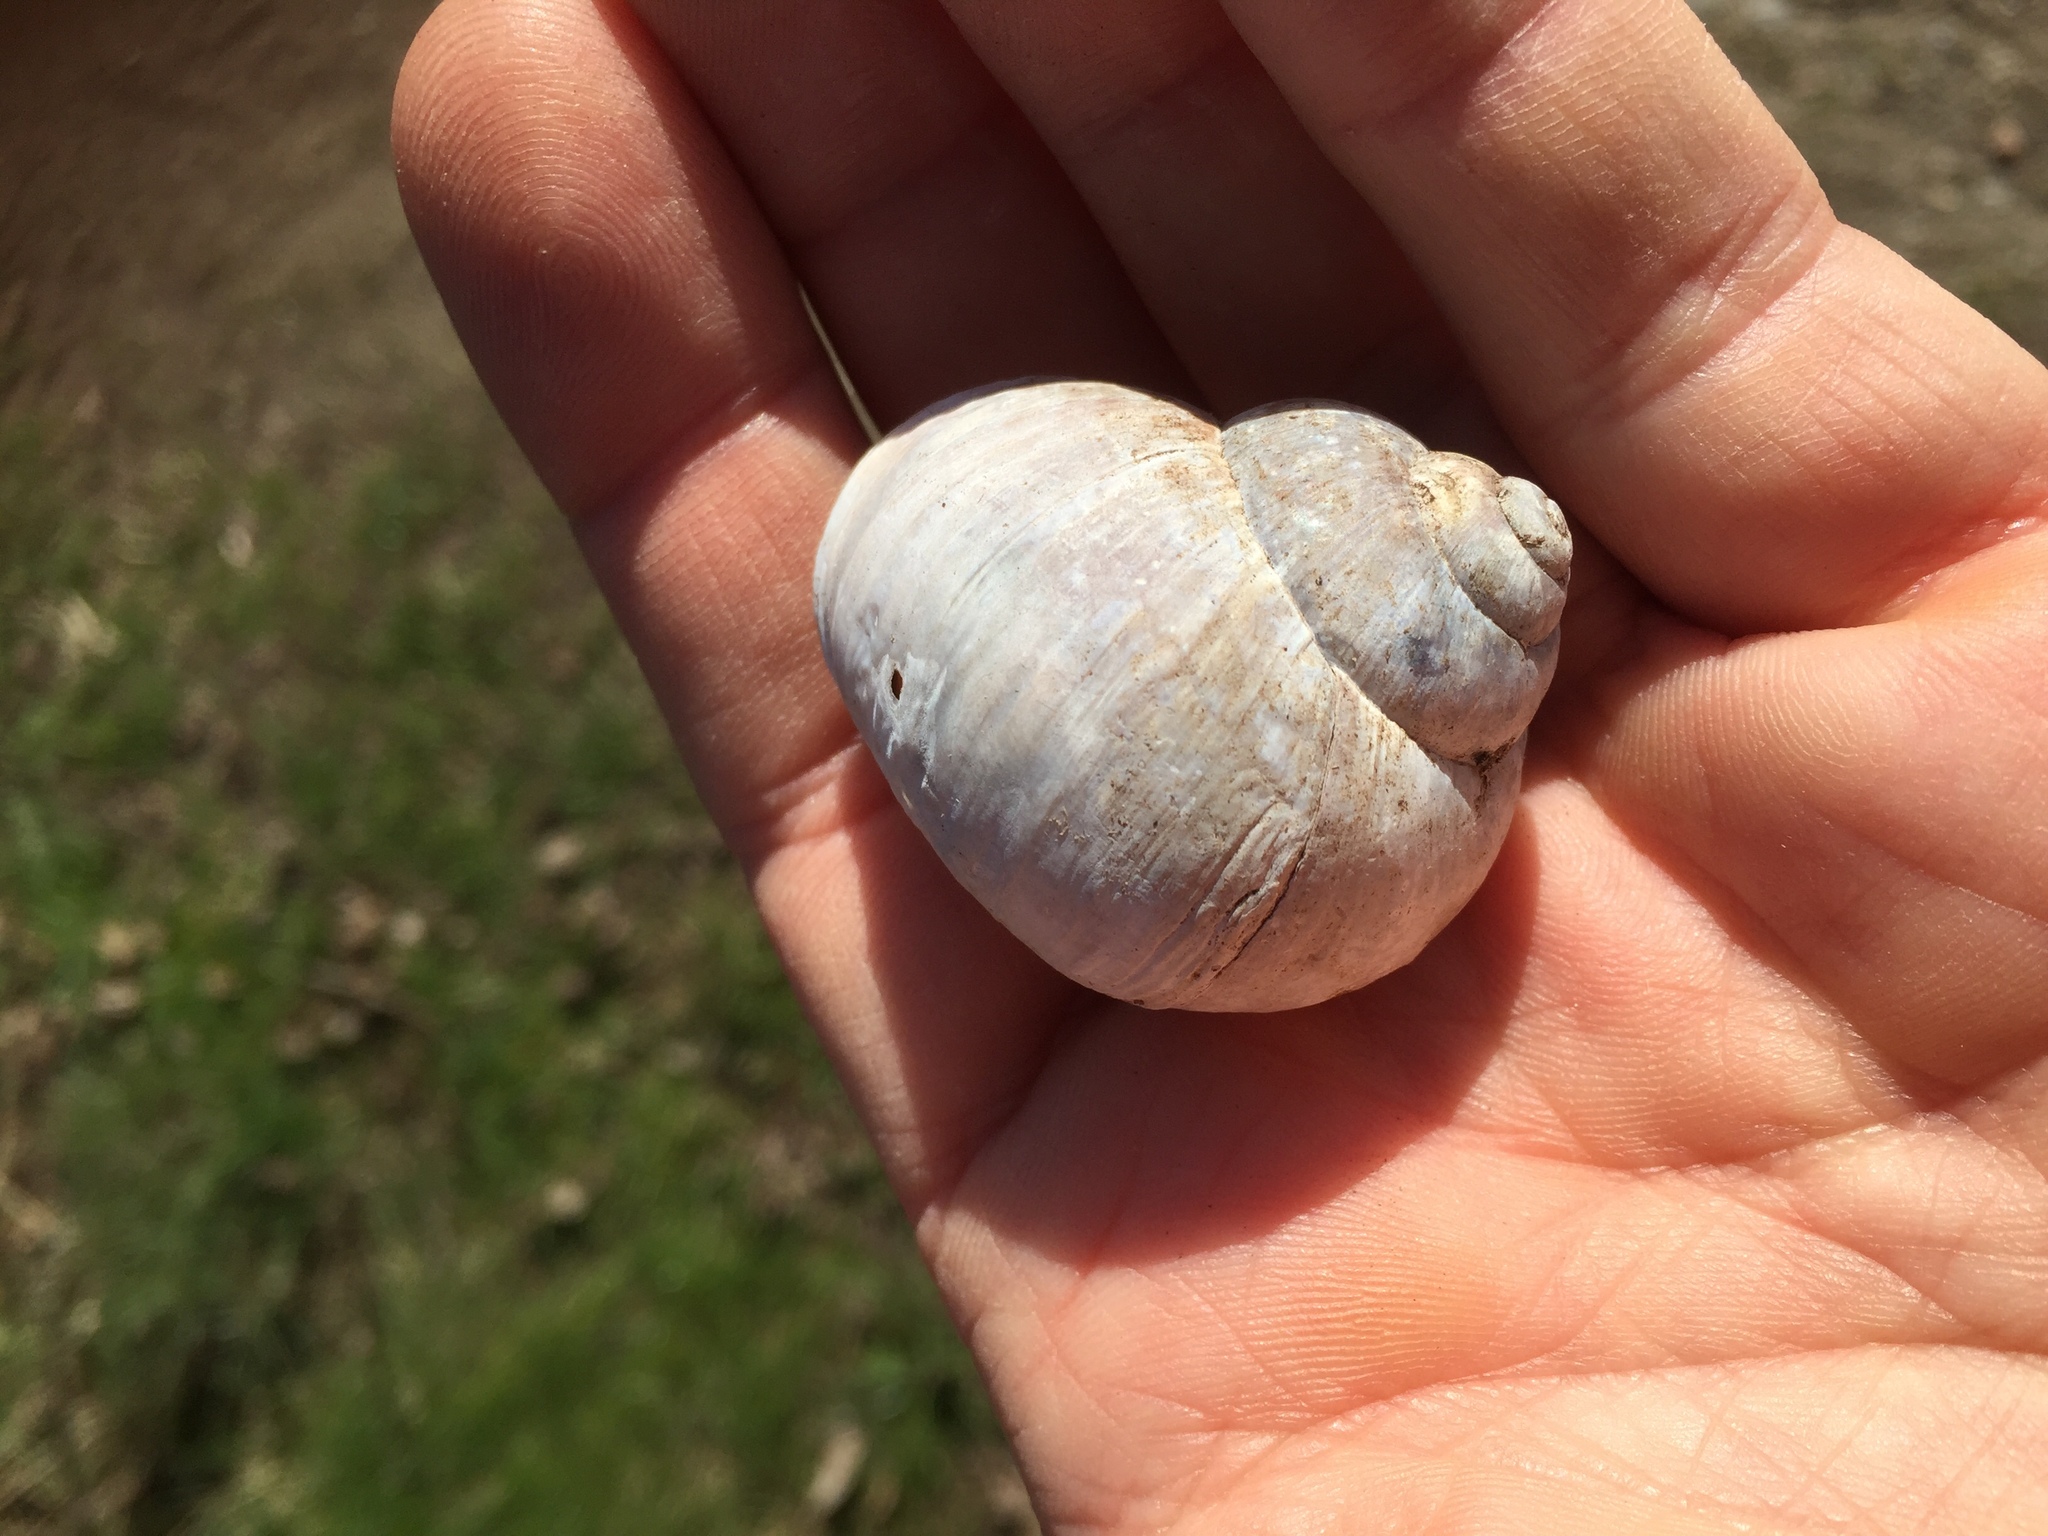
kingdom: Animalia
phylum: Mollusca
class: Gastropoda
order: Stylommatophora
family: Helicidae
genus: Helix
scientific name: Helix pomatia
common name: Roman snail
